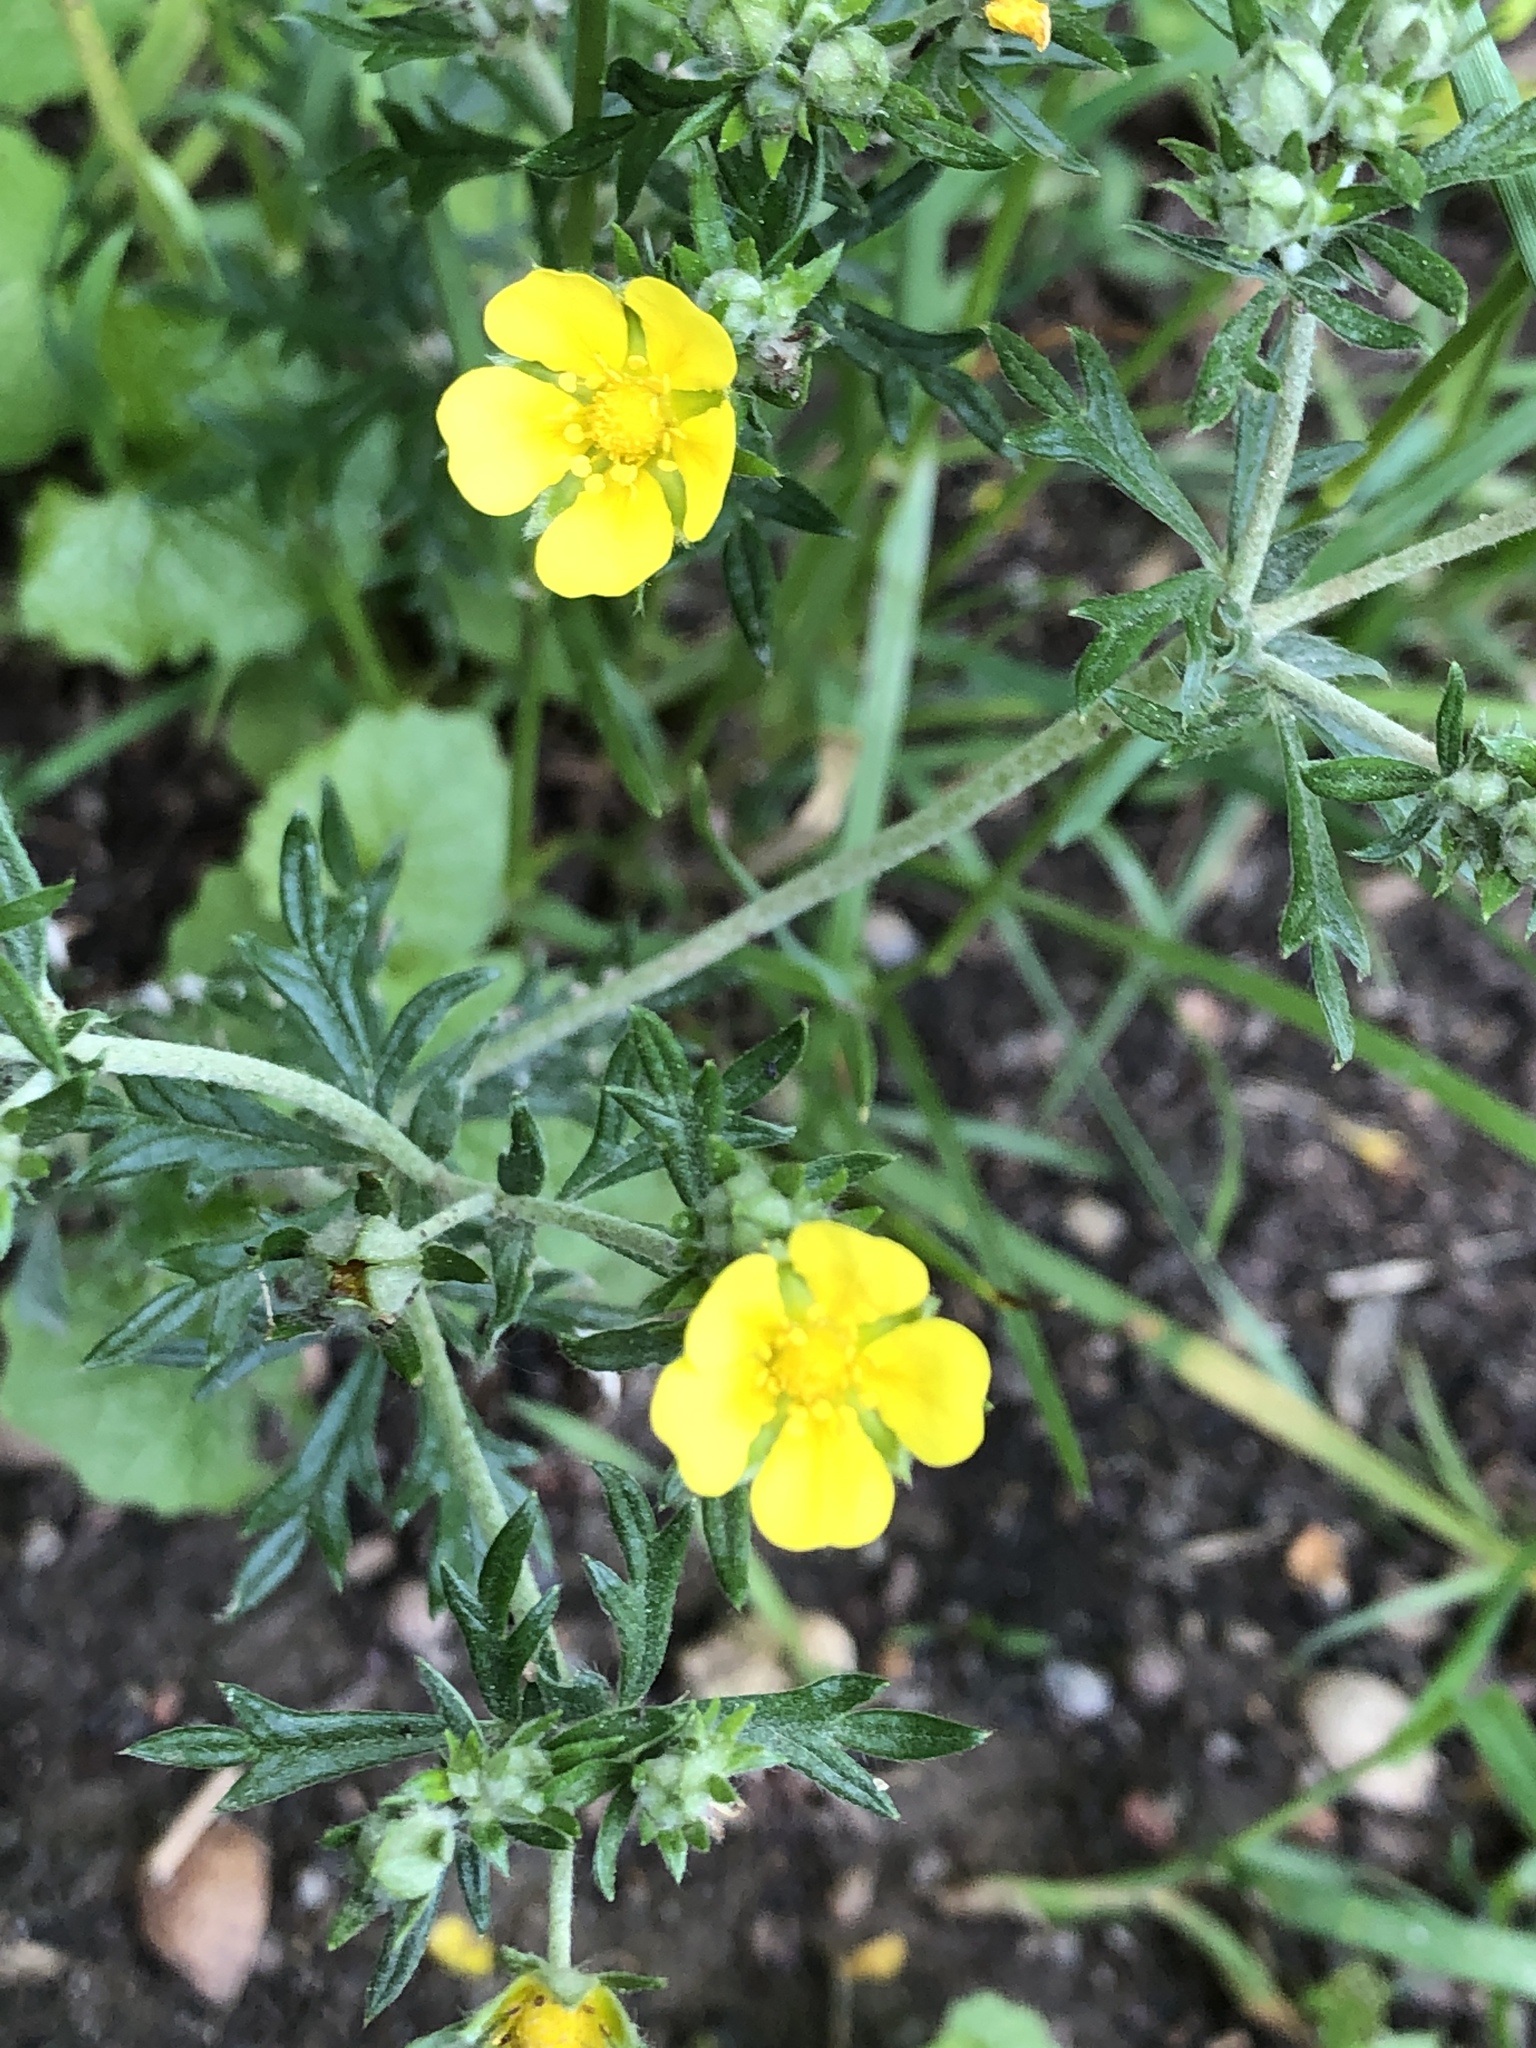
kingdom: Plantae
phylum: Tracheophyta
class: Magnoliopsida
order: Rosales
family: Rosaceae
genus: Potentilla
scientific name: Potentilla argentea
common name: Hoary cinquefoil
